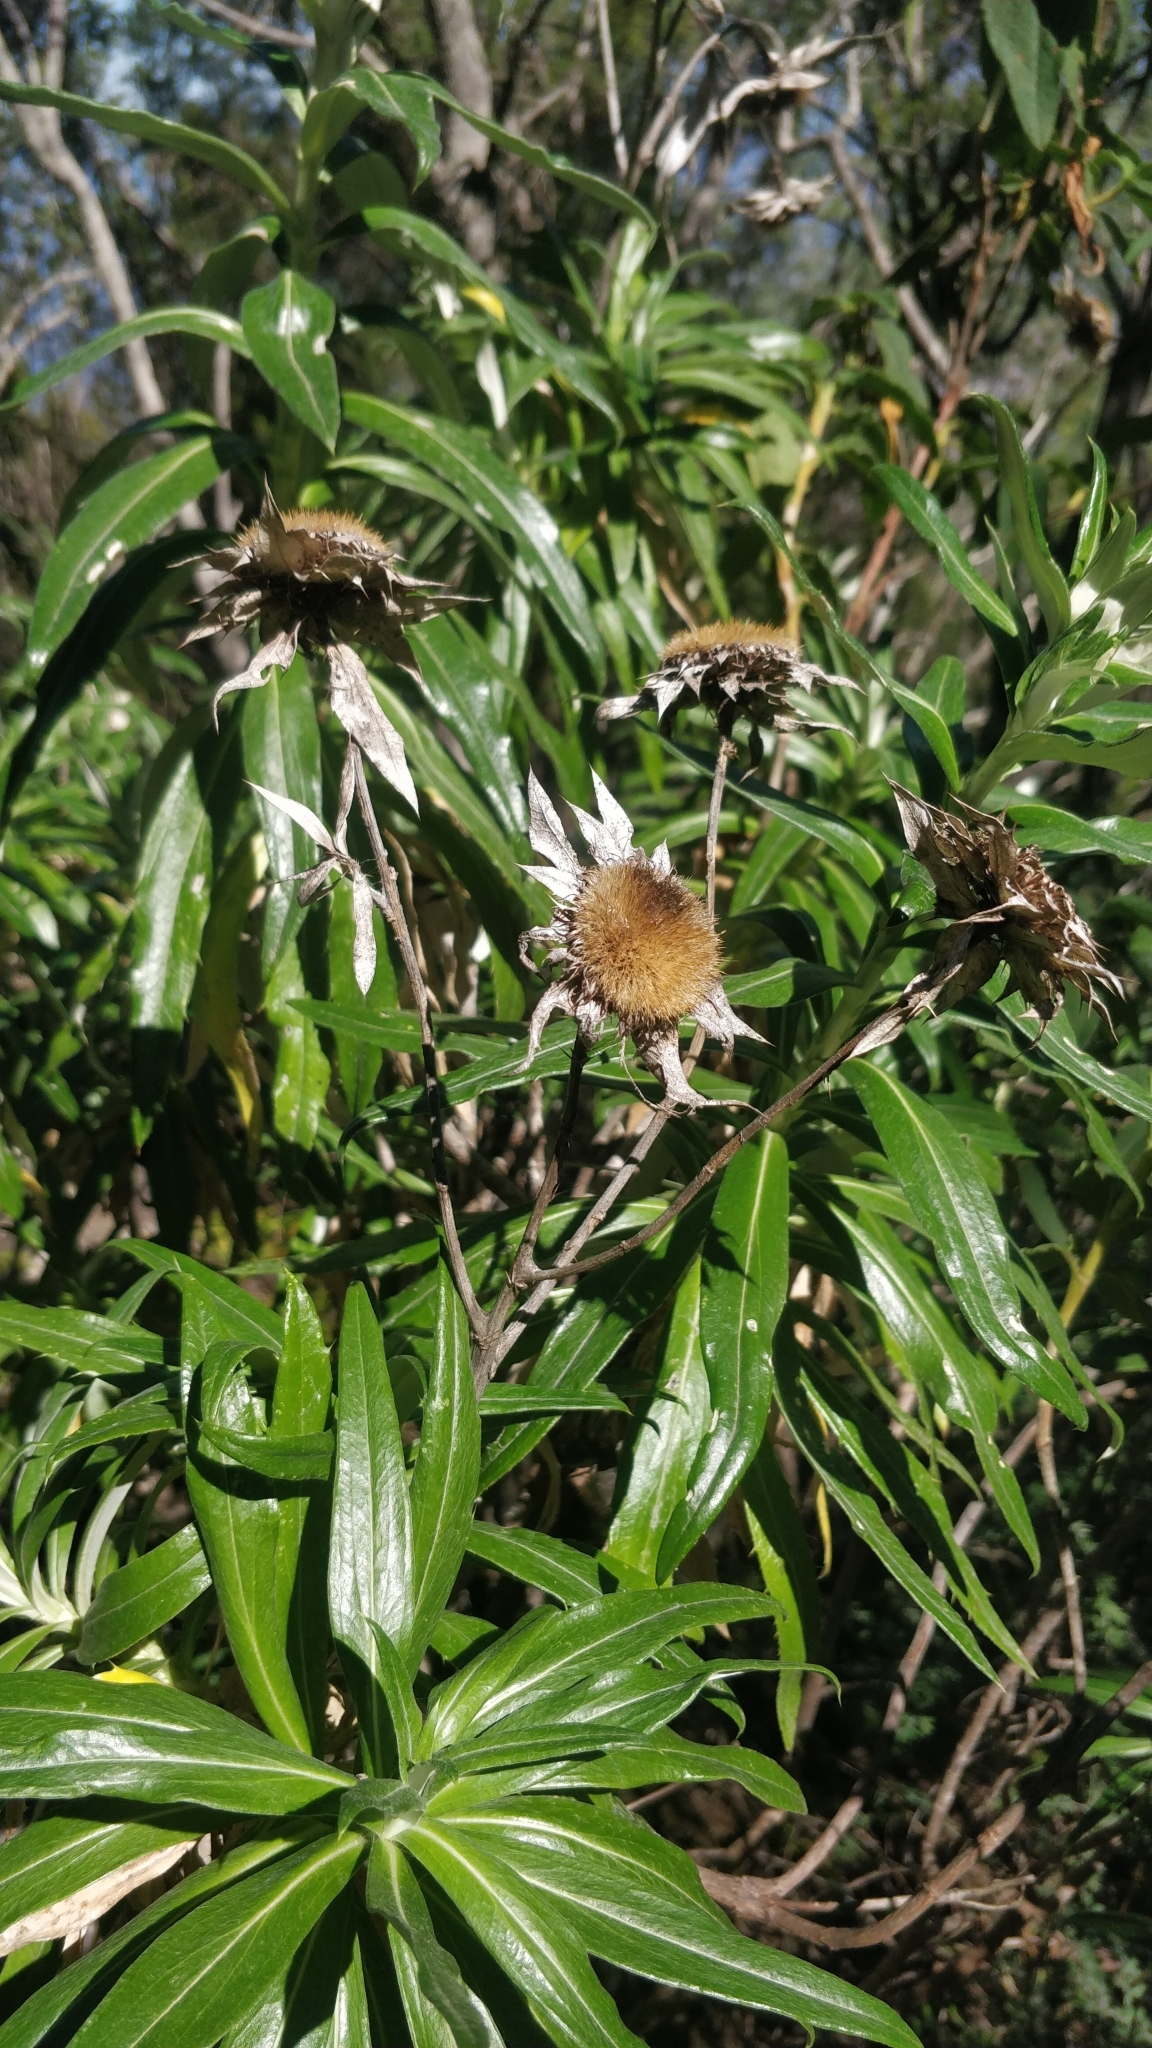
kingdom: Plantae
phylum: Tracheophyta
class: Magnoliopsida
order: Asterales
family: Asteraceae
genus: Carlina
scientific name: Carlina salicifolia
